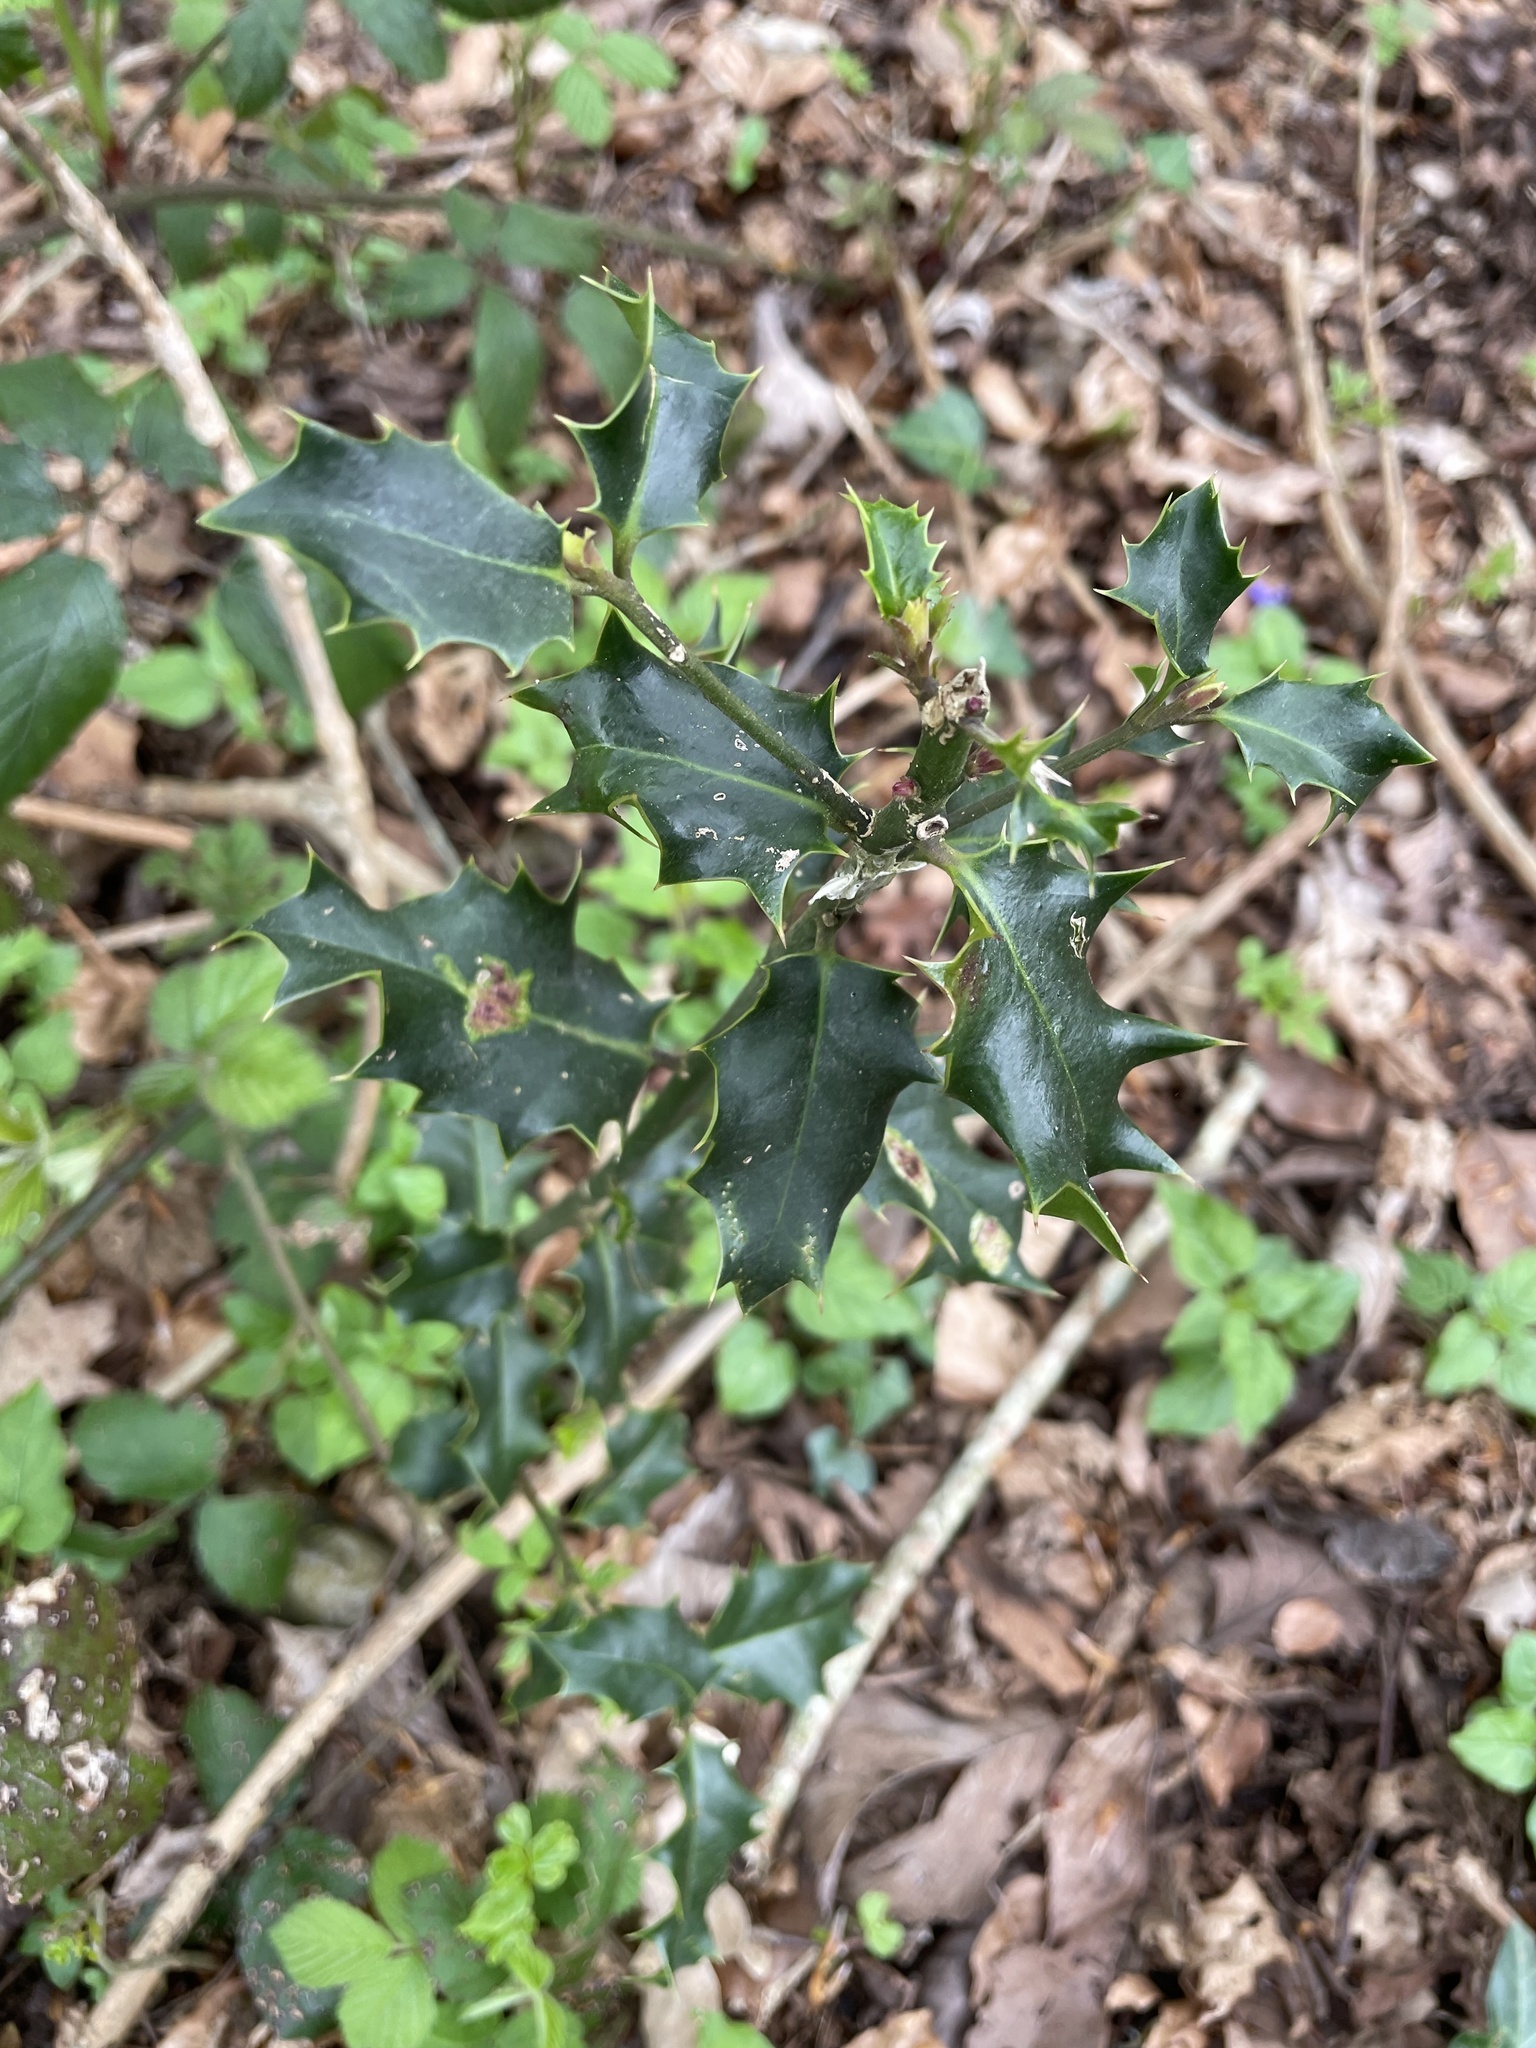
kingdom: Plantae
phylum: Tracheophyta
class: Magnoliopsida
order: Aquifoliales
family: Aquifoliaceae
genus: Ilex
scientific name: Ilex aquifolium
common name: English holly
